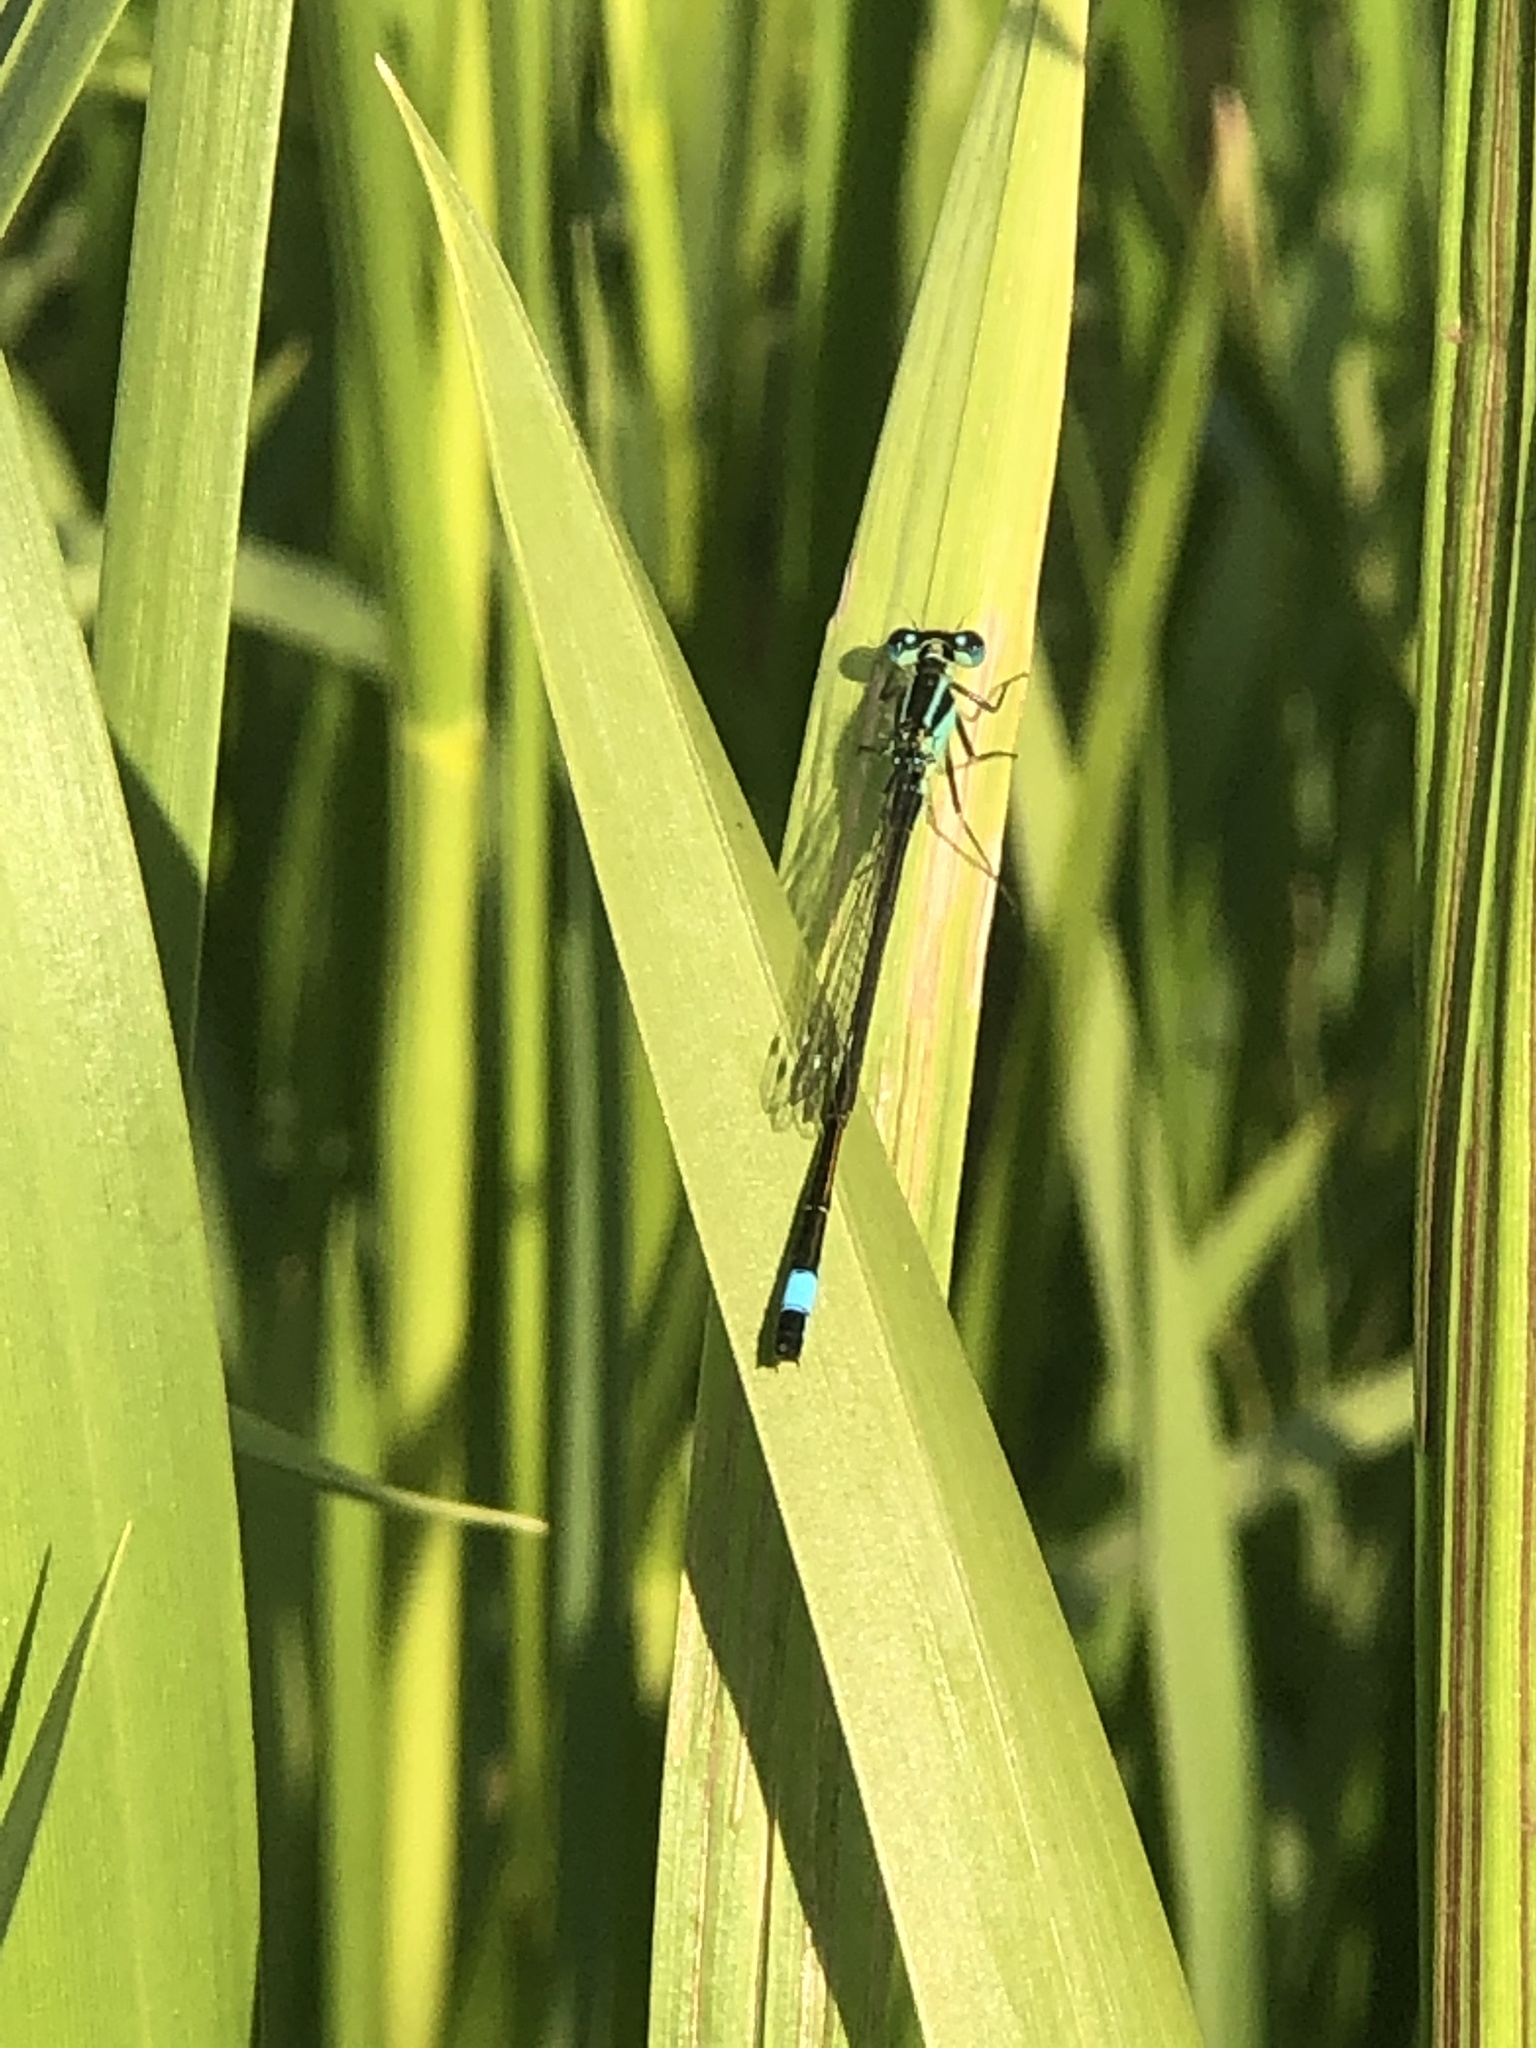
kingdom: Animalia
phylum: Arthropoda
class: Insecta
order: Odonata
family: Coenagrionidae
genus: Ischnura
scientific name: Ischnura elegans
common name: Blue-tailed damselfly
